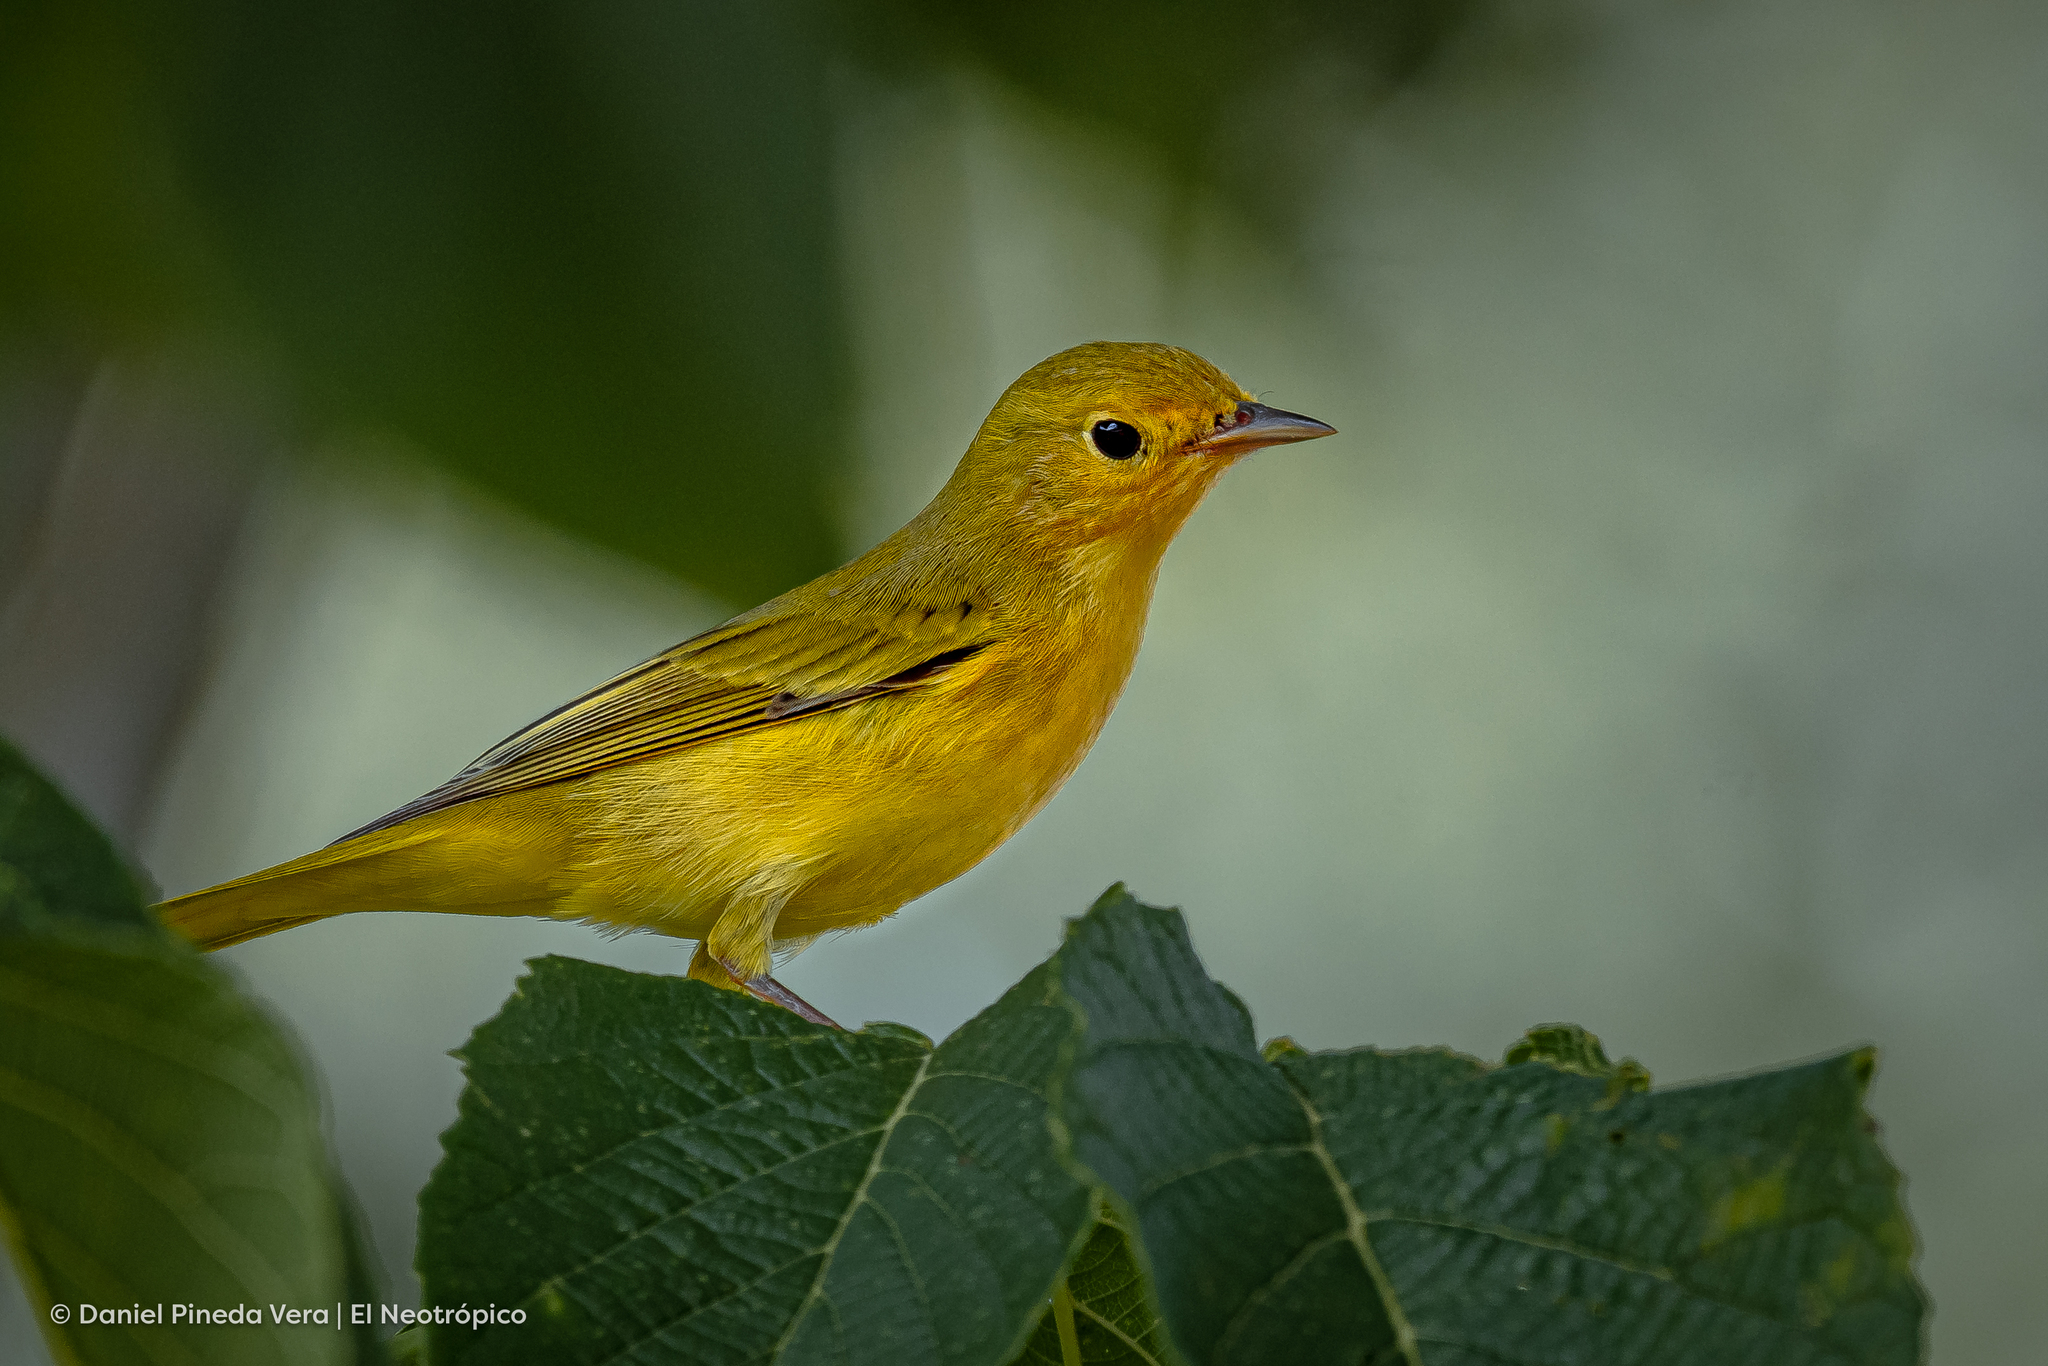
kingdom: Animalia
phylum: Chordata
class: Aves
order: Passeriformes
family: Parulidae
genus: Setophaga
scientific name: Setophaga petechia
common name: Yellow warbler
